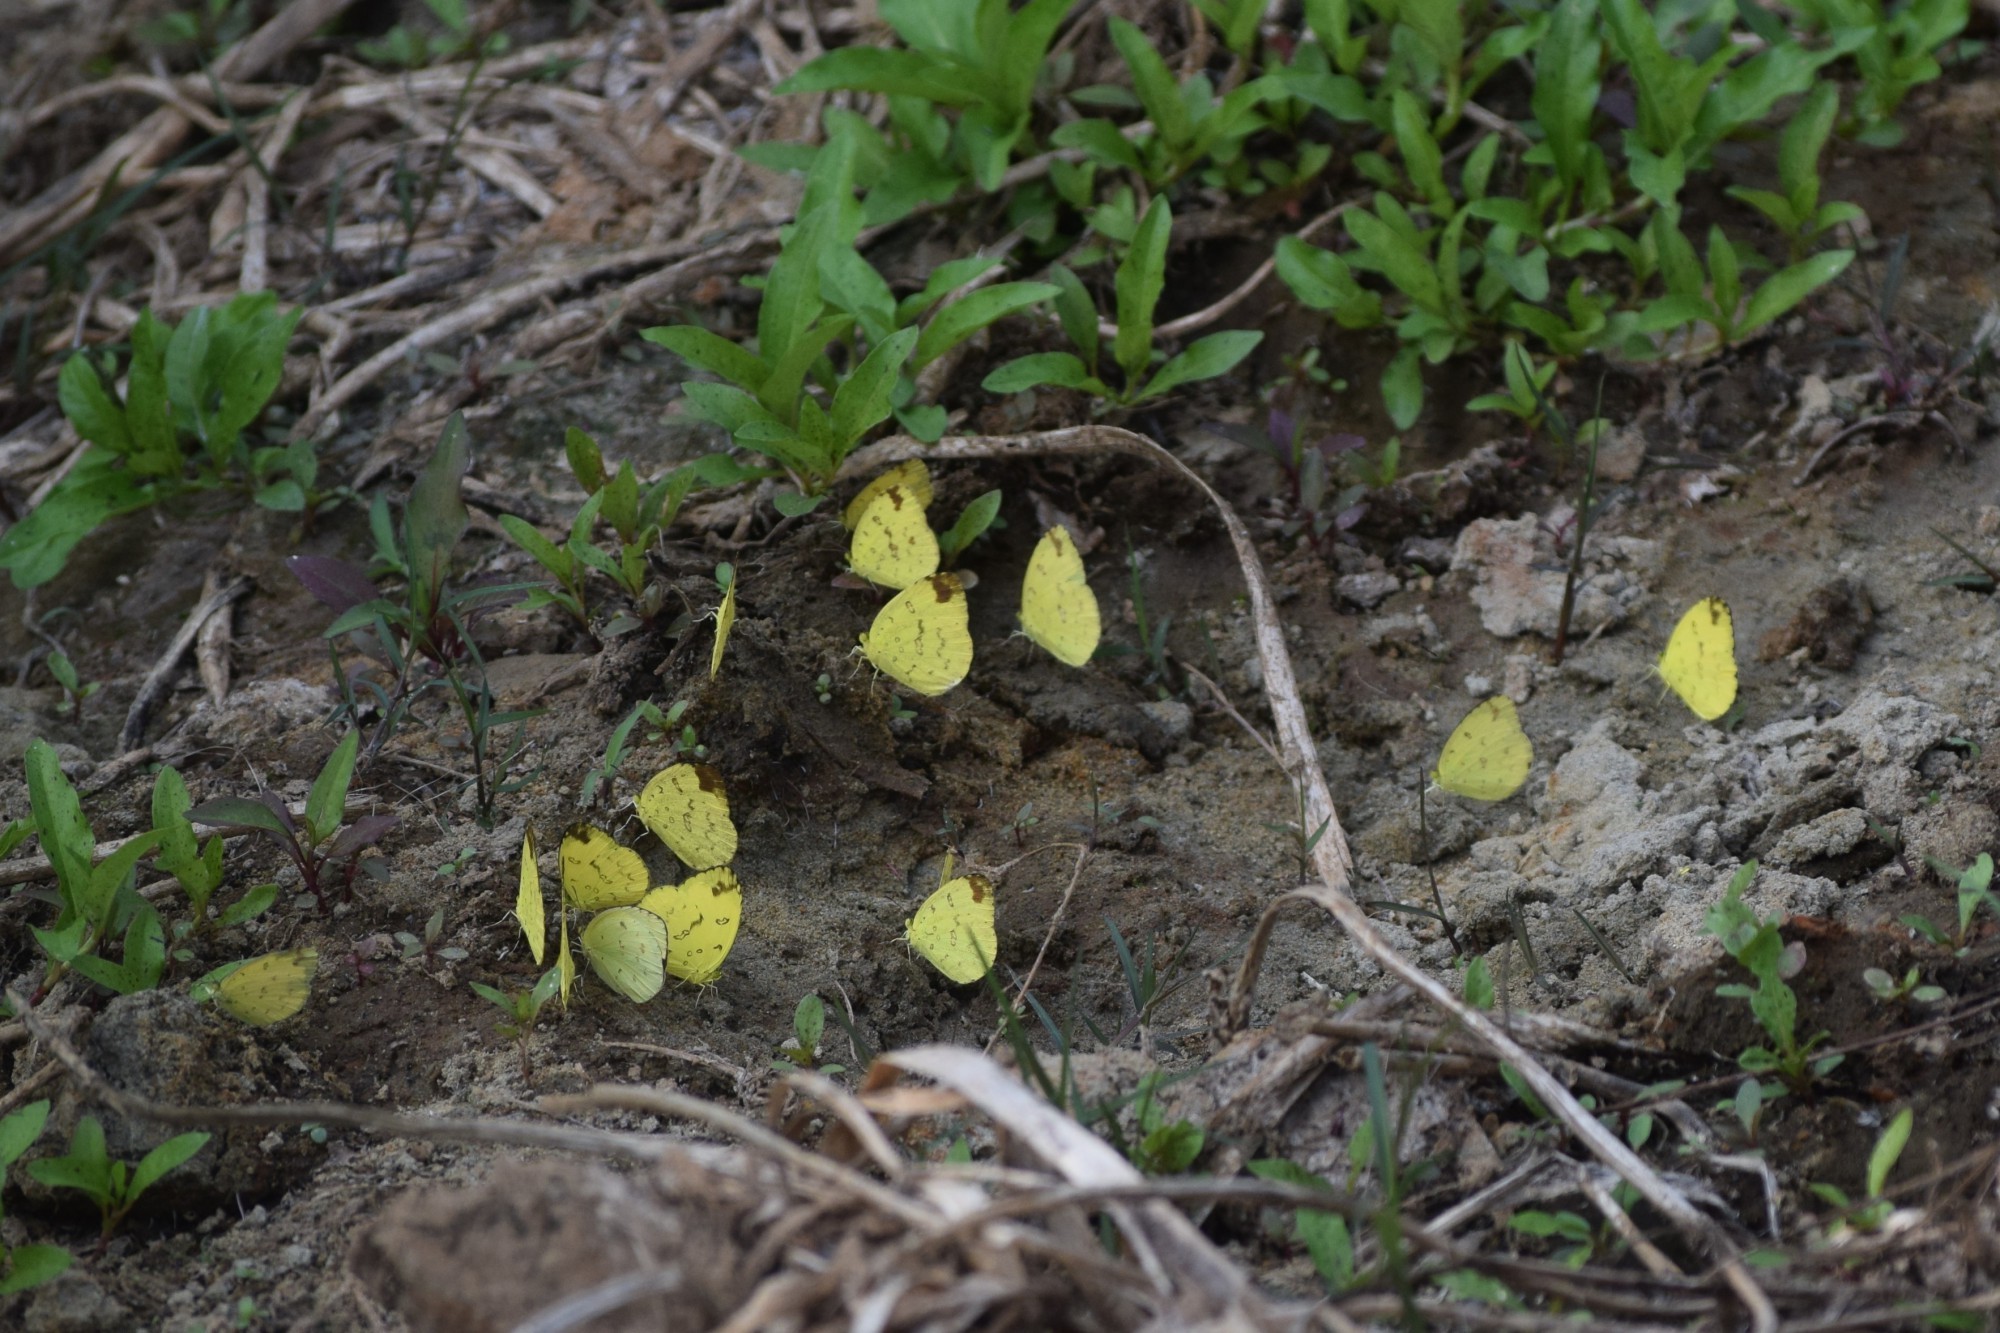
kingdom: Animalia
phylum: Arthropoda
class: Insecta
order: Lepidoptera
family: Pieridae
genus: Eurema
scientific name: Eurema andersoni
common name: One-spot yellow grass
